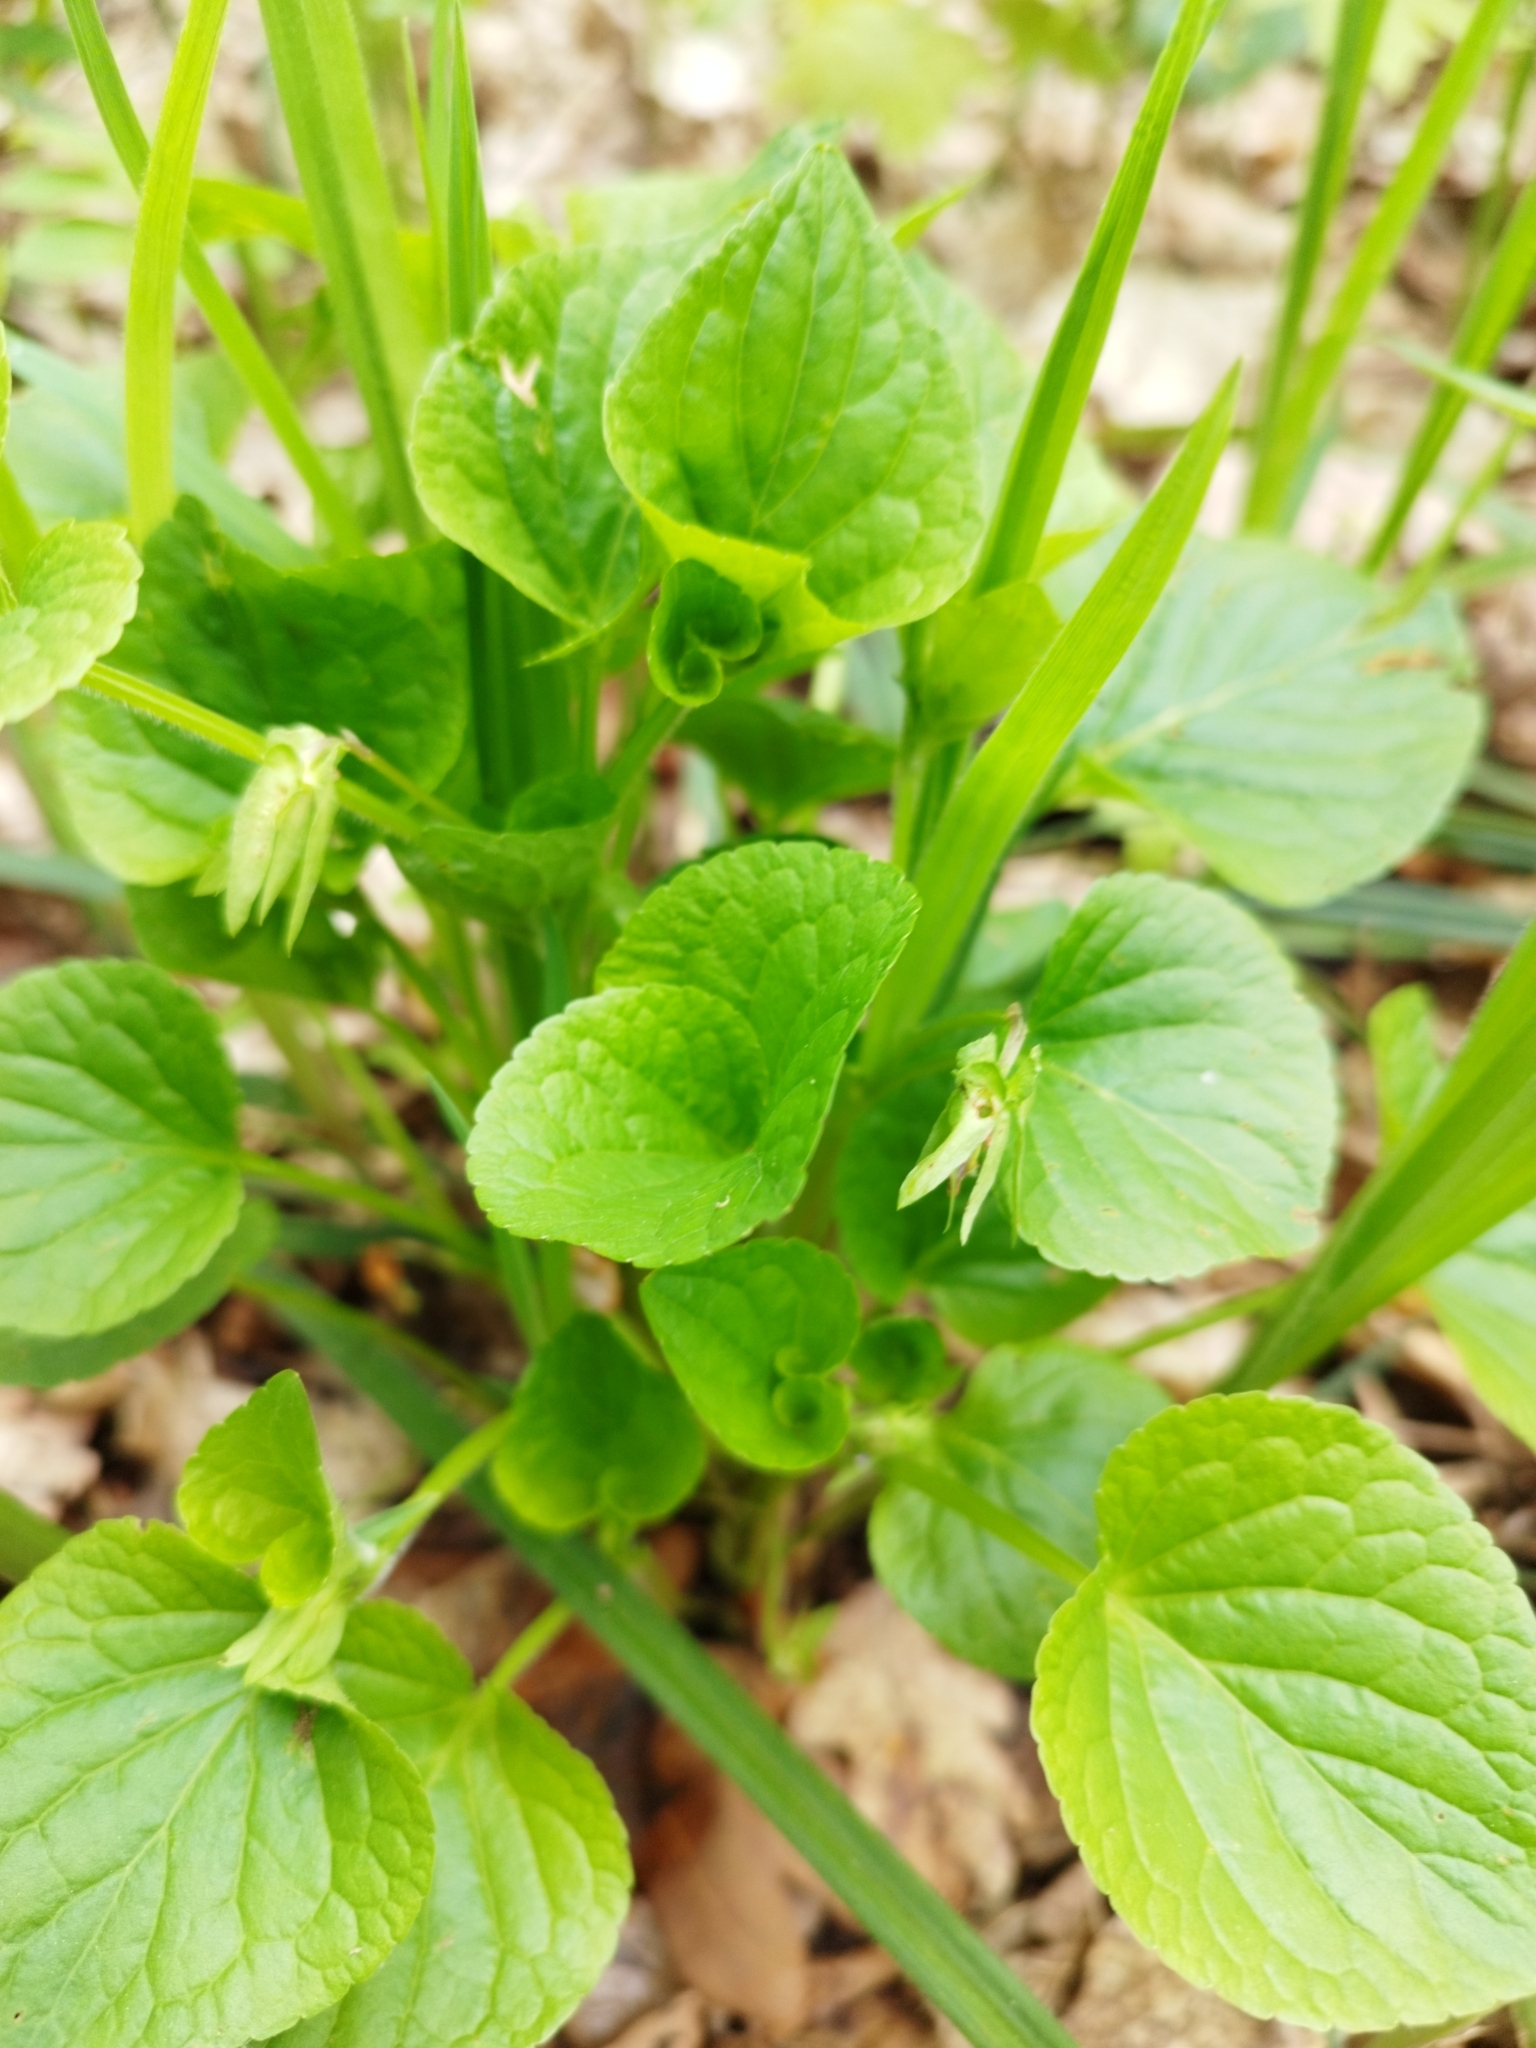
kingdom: Plantae
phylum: Tracheophyta
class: Magnoliopsida
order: Malpighiales
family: Violaceae
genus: Viola
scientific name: Viola mirabilis
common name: Wonder violet
